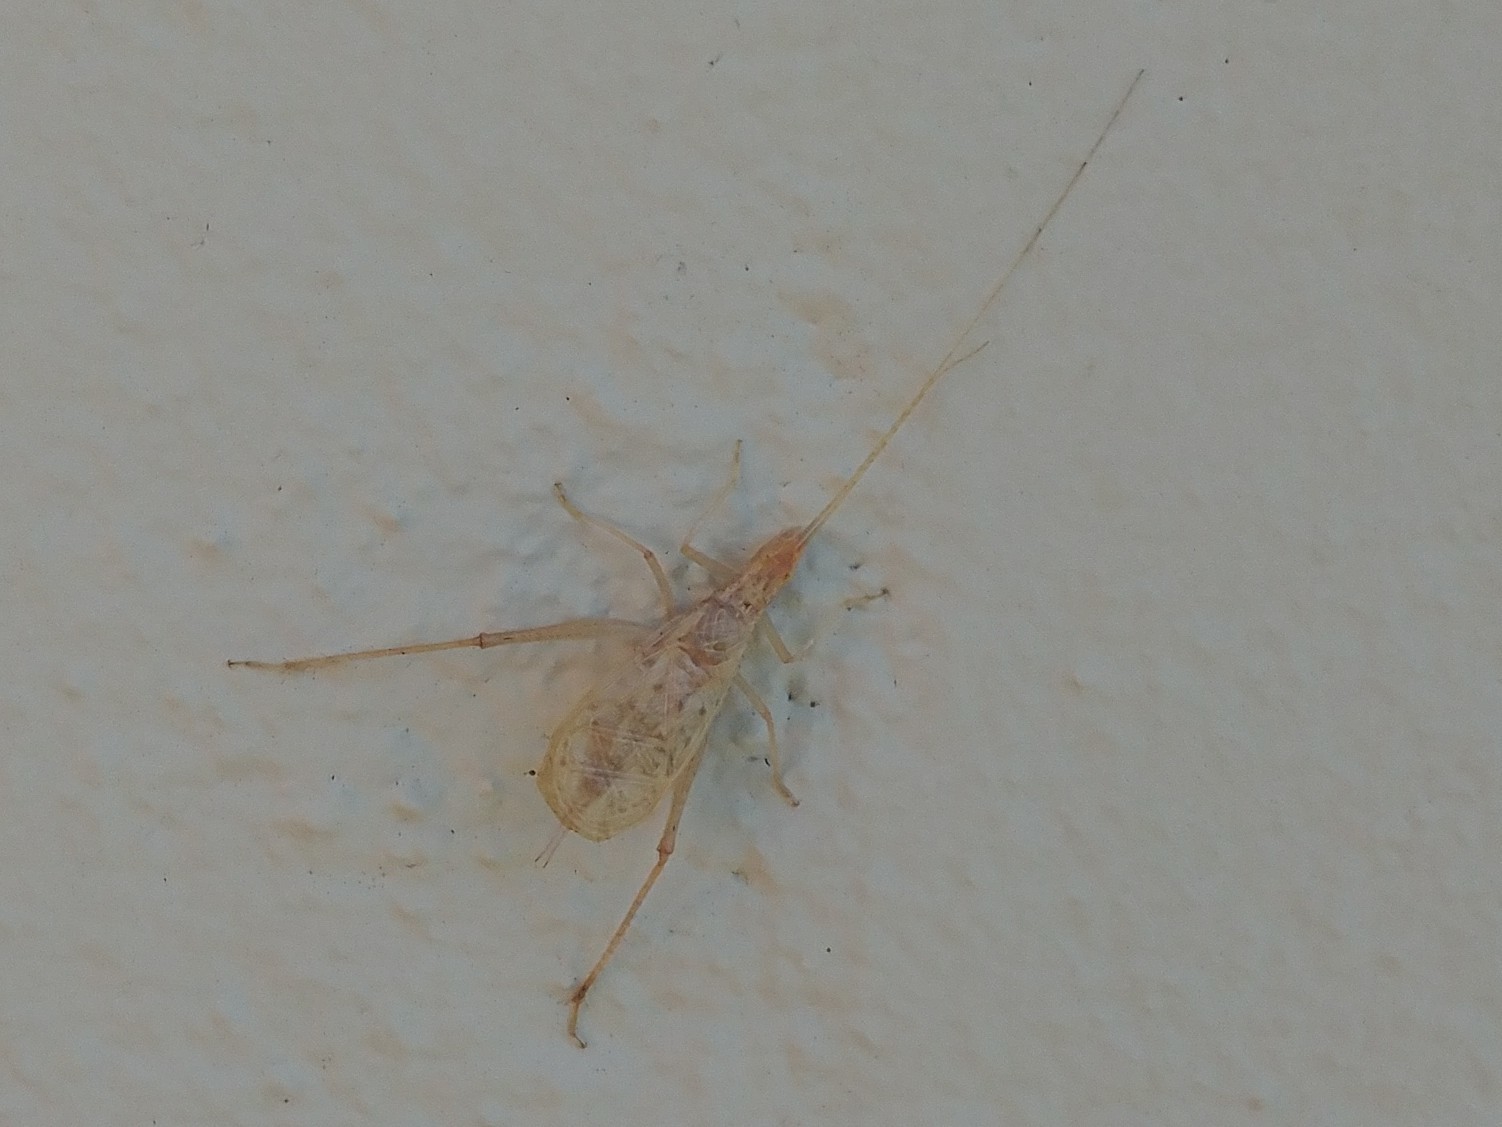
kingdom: Animalia
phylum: Arthropoda
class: Insecta
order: Orthoptera
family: Gryllidae
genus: Oecanthus
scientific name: Oecanthus
